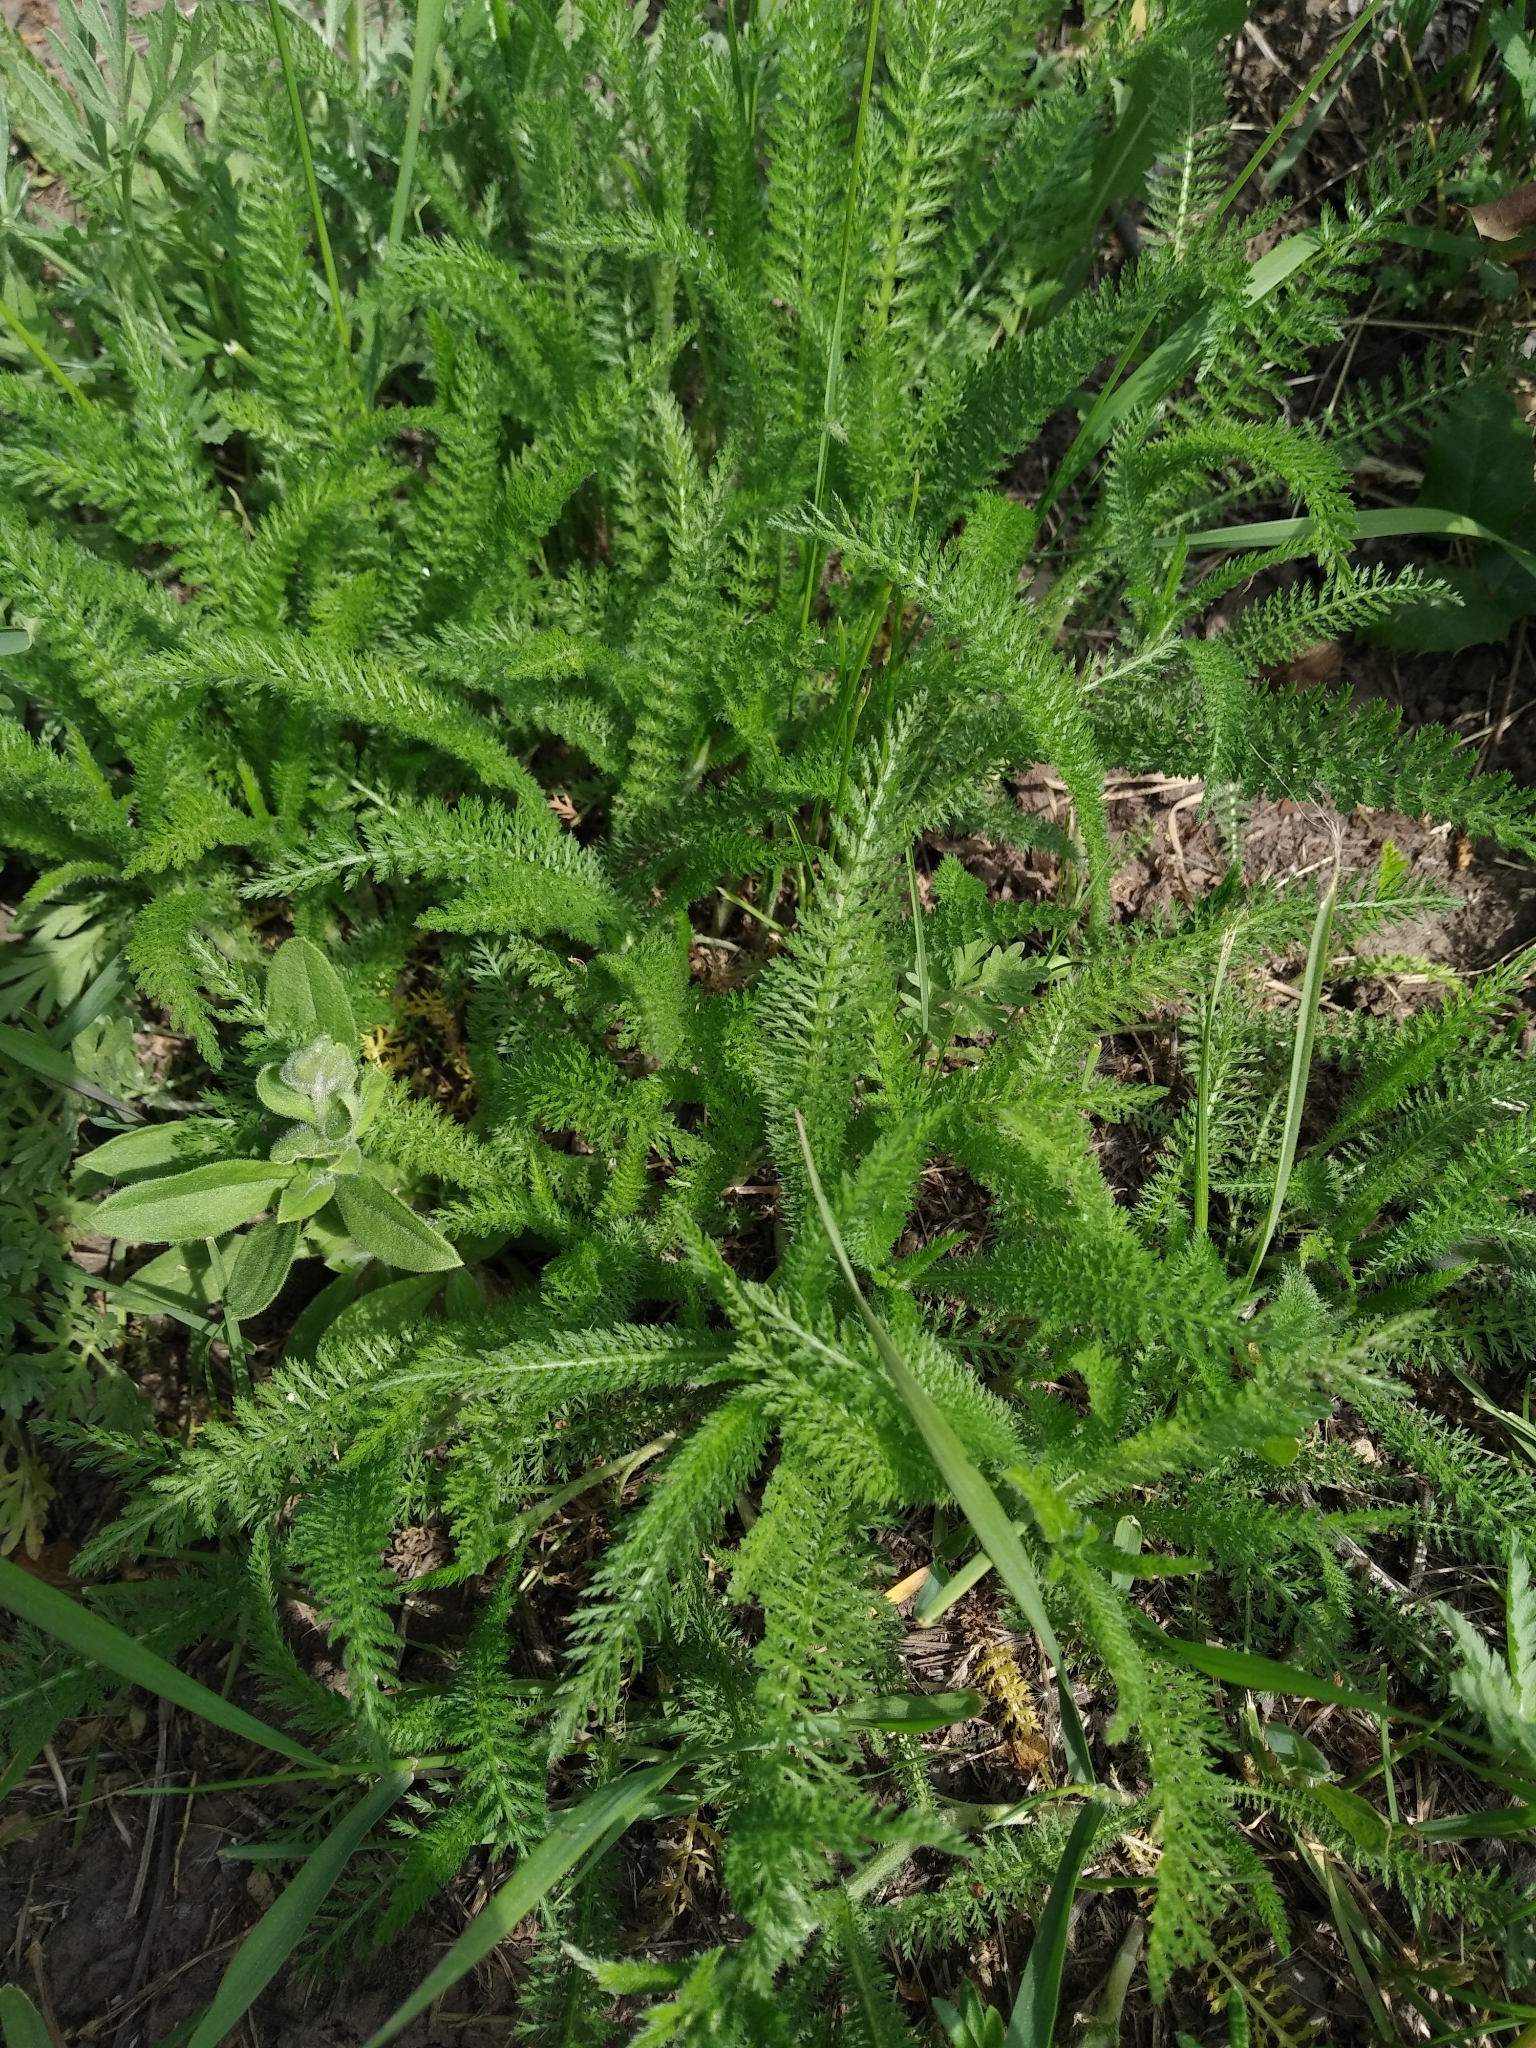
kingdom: Plantae
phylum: Tracheophyta
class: Magnoliopsida
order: Asterales
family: Asteraceae
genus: Achillea
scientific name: Achillea millefolium
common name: Yarrow
